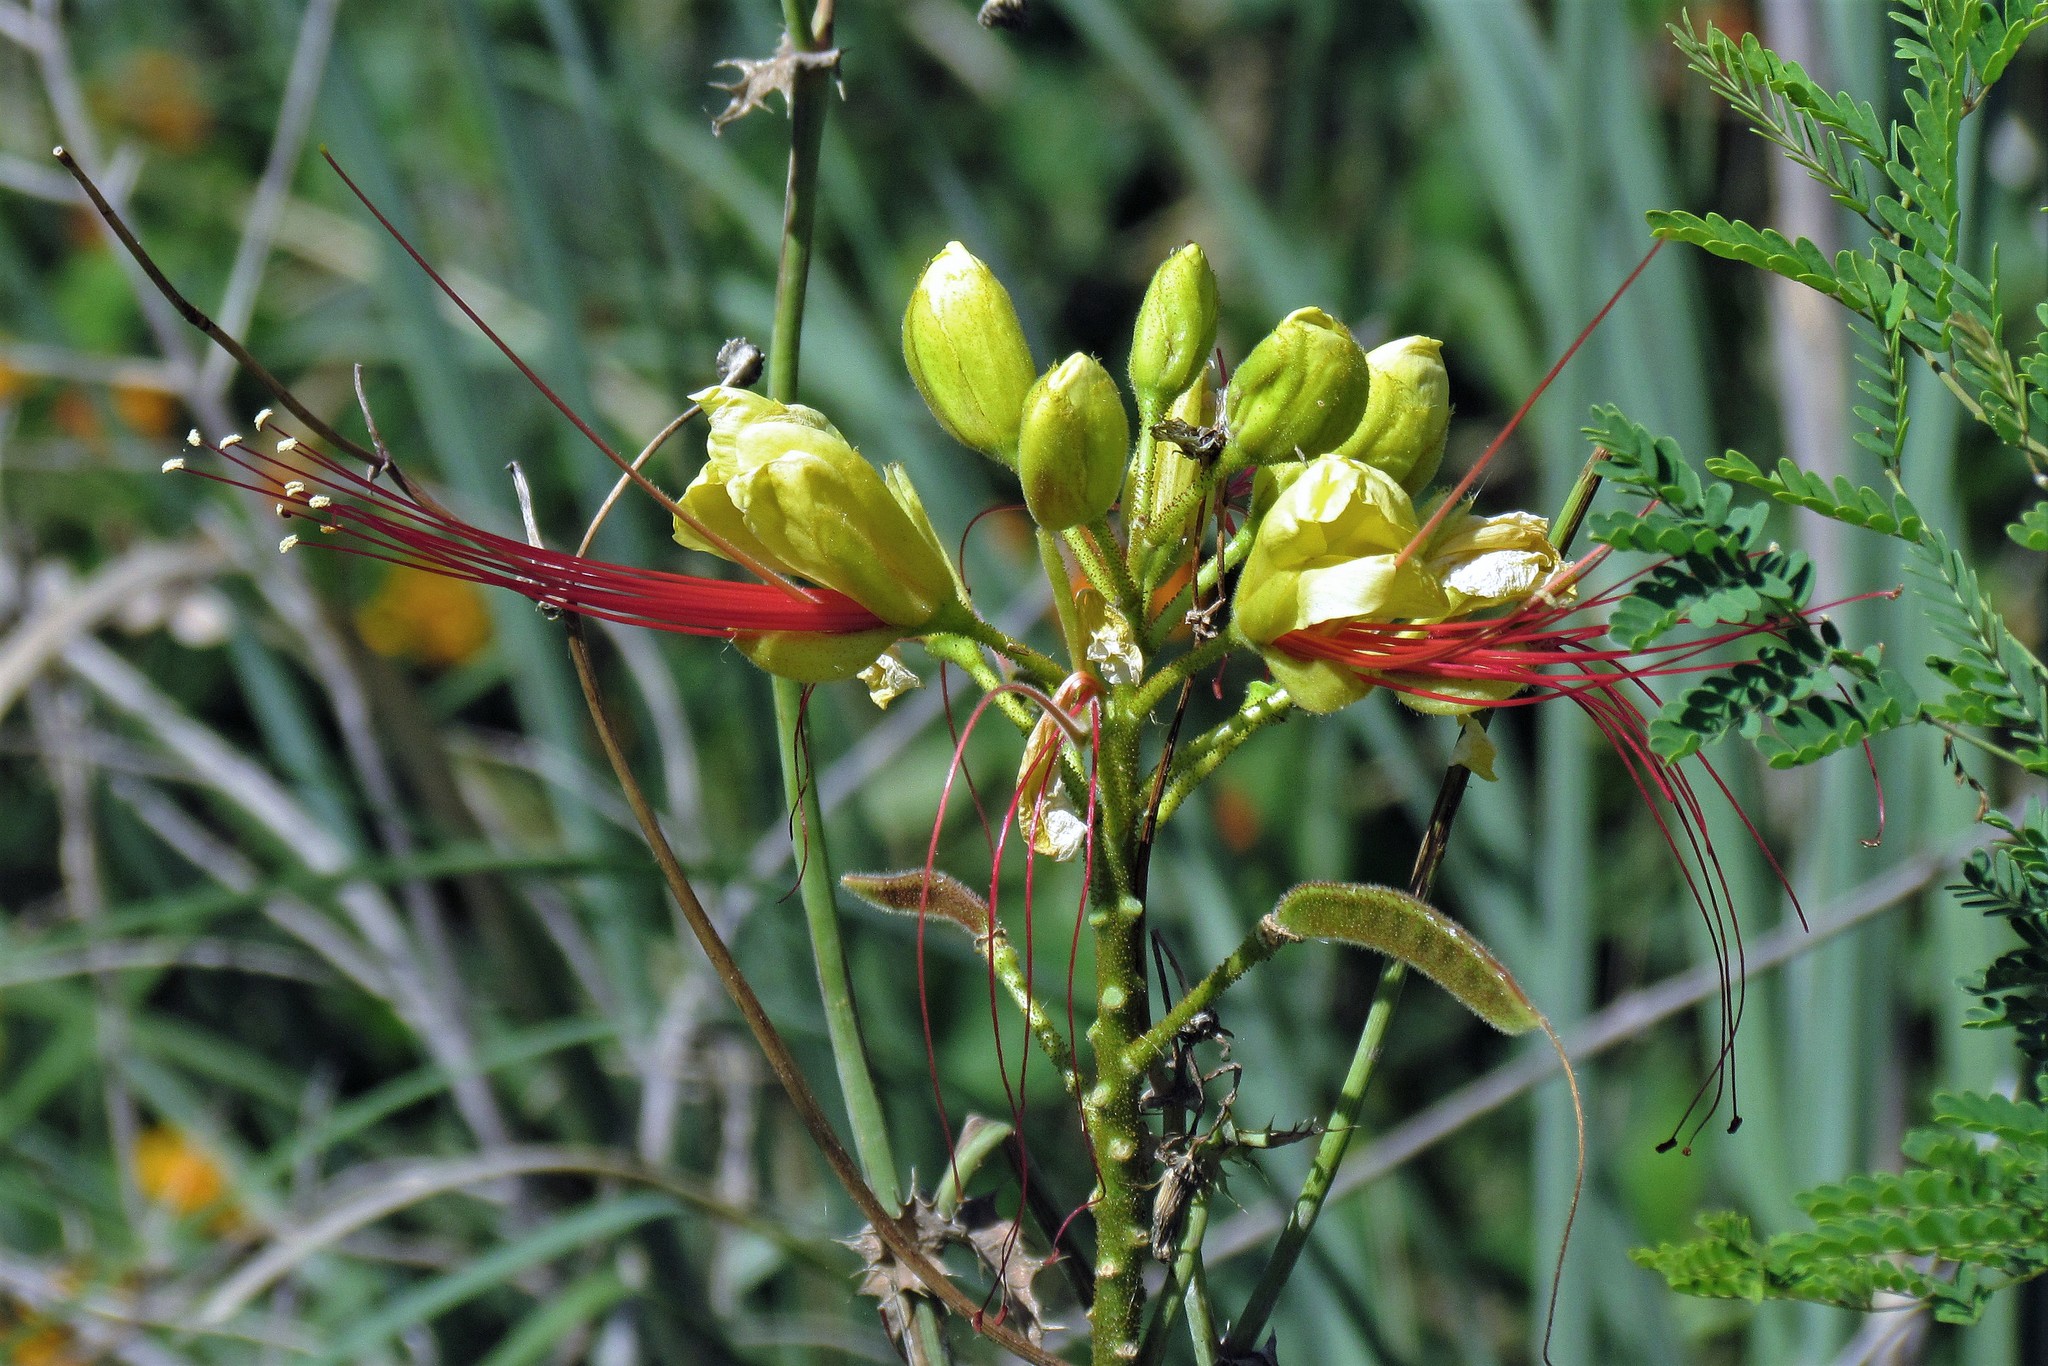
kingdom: Plantae
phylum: Tracheophyta
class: Magnoliopsida
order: Fabales
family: Fabaceae
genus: Erythrostemon
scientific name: Erythrostemon gilliesii
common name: Bird-of-paradise shrub
